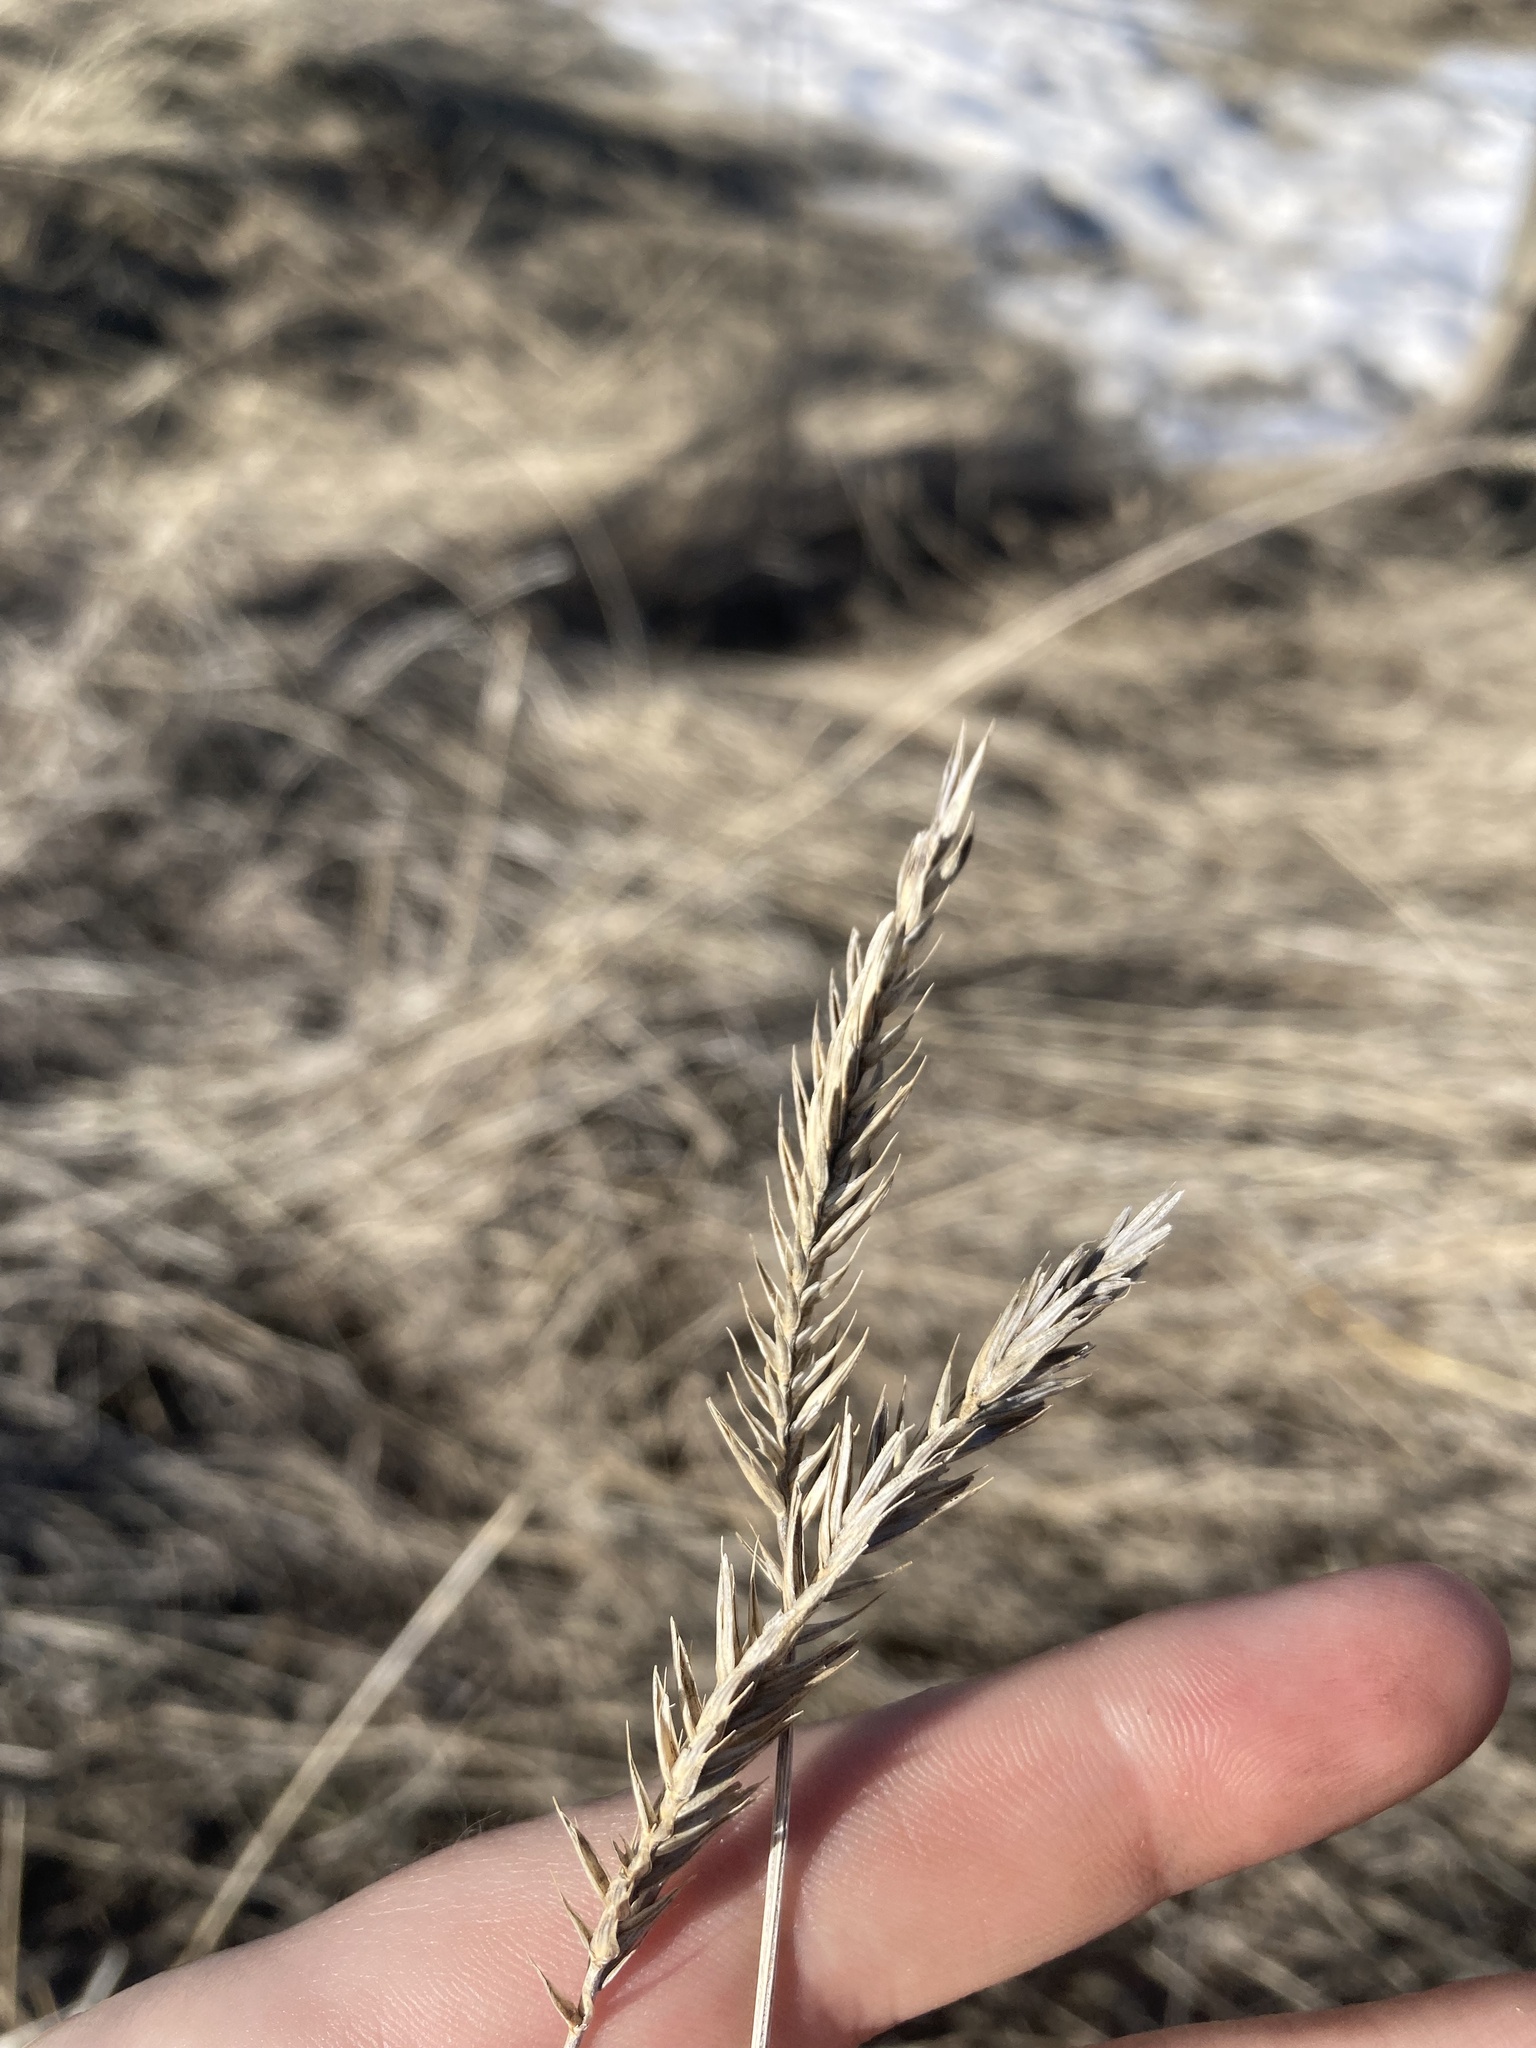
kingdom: Plantae
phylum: Tracheophyta
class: Liliopsida
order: Poales
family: Poaceae
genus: Agropyron
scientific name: Agropyron cristatum
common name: Crested wheatgrass
